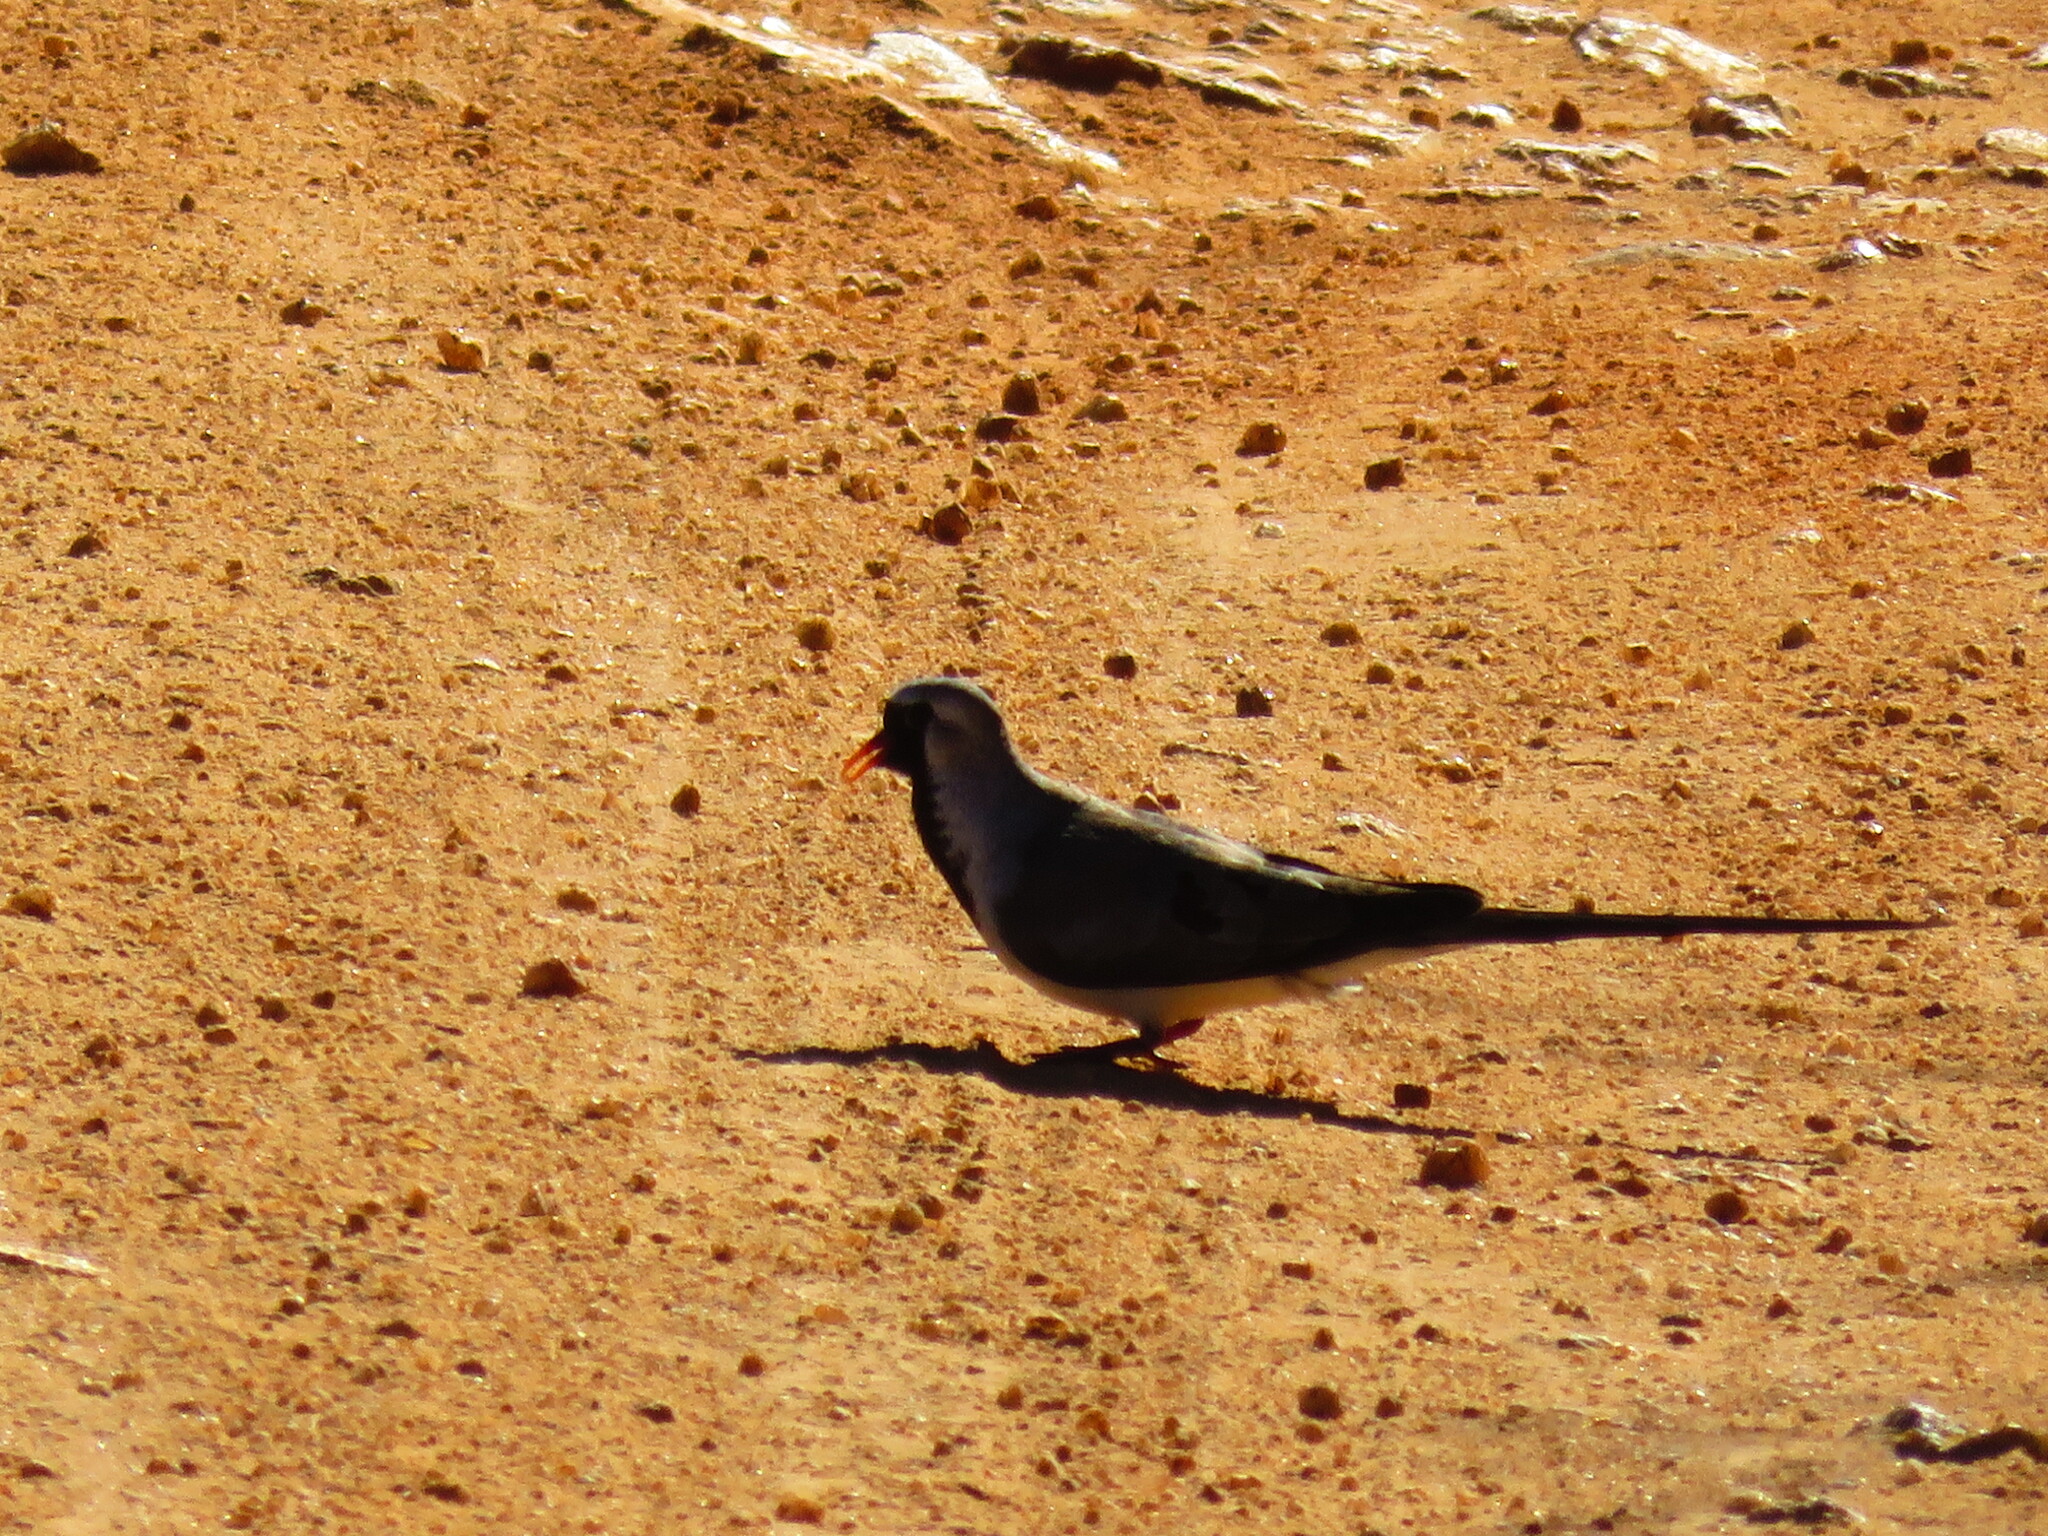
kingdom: Animalia
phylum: Chordata
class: Aves
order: Columbiformes
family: Columbidae
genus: Oena
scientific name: Oena capensis
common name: Namaqua dove
